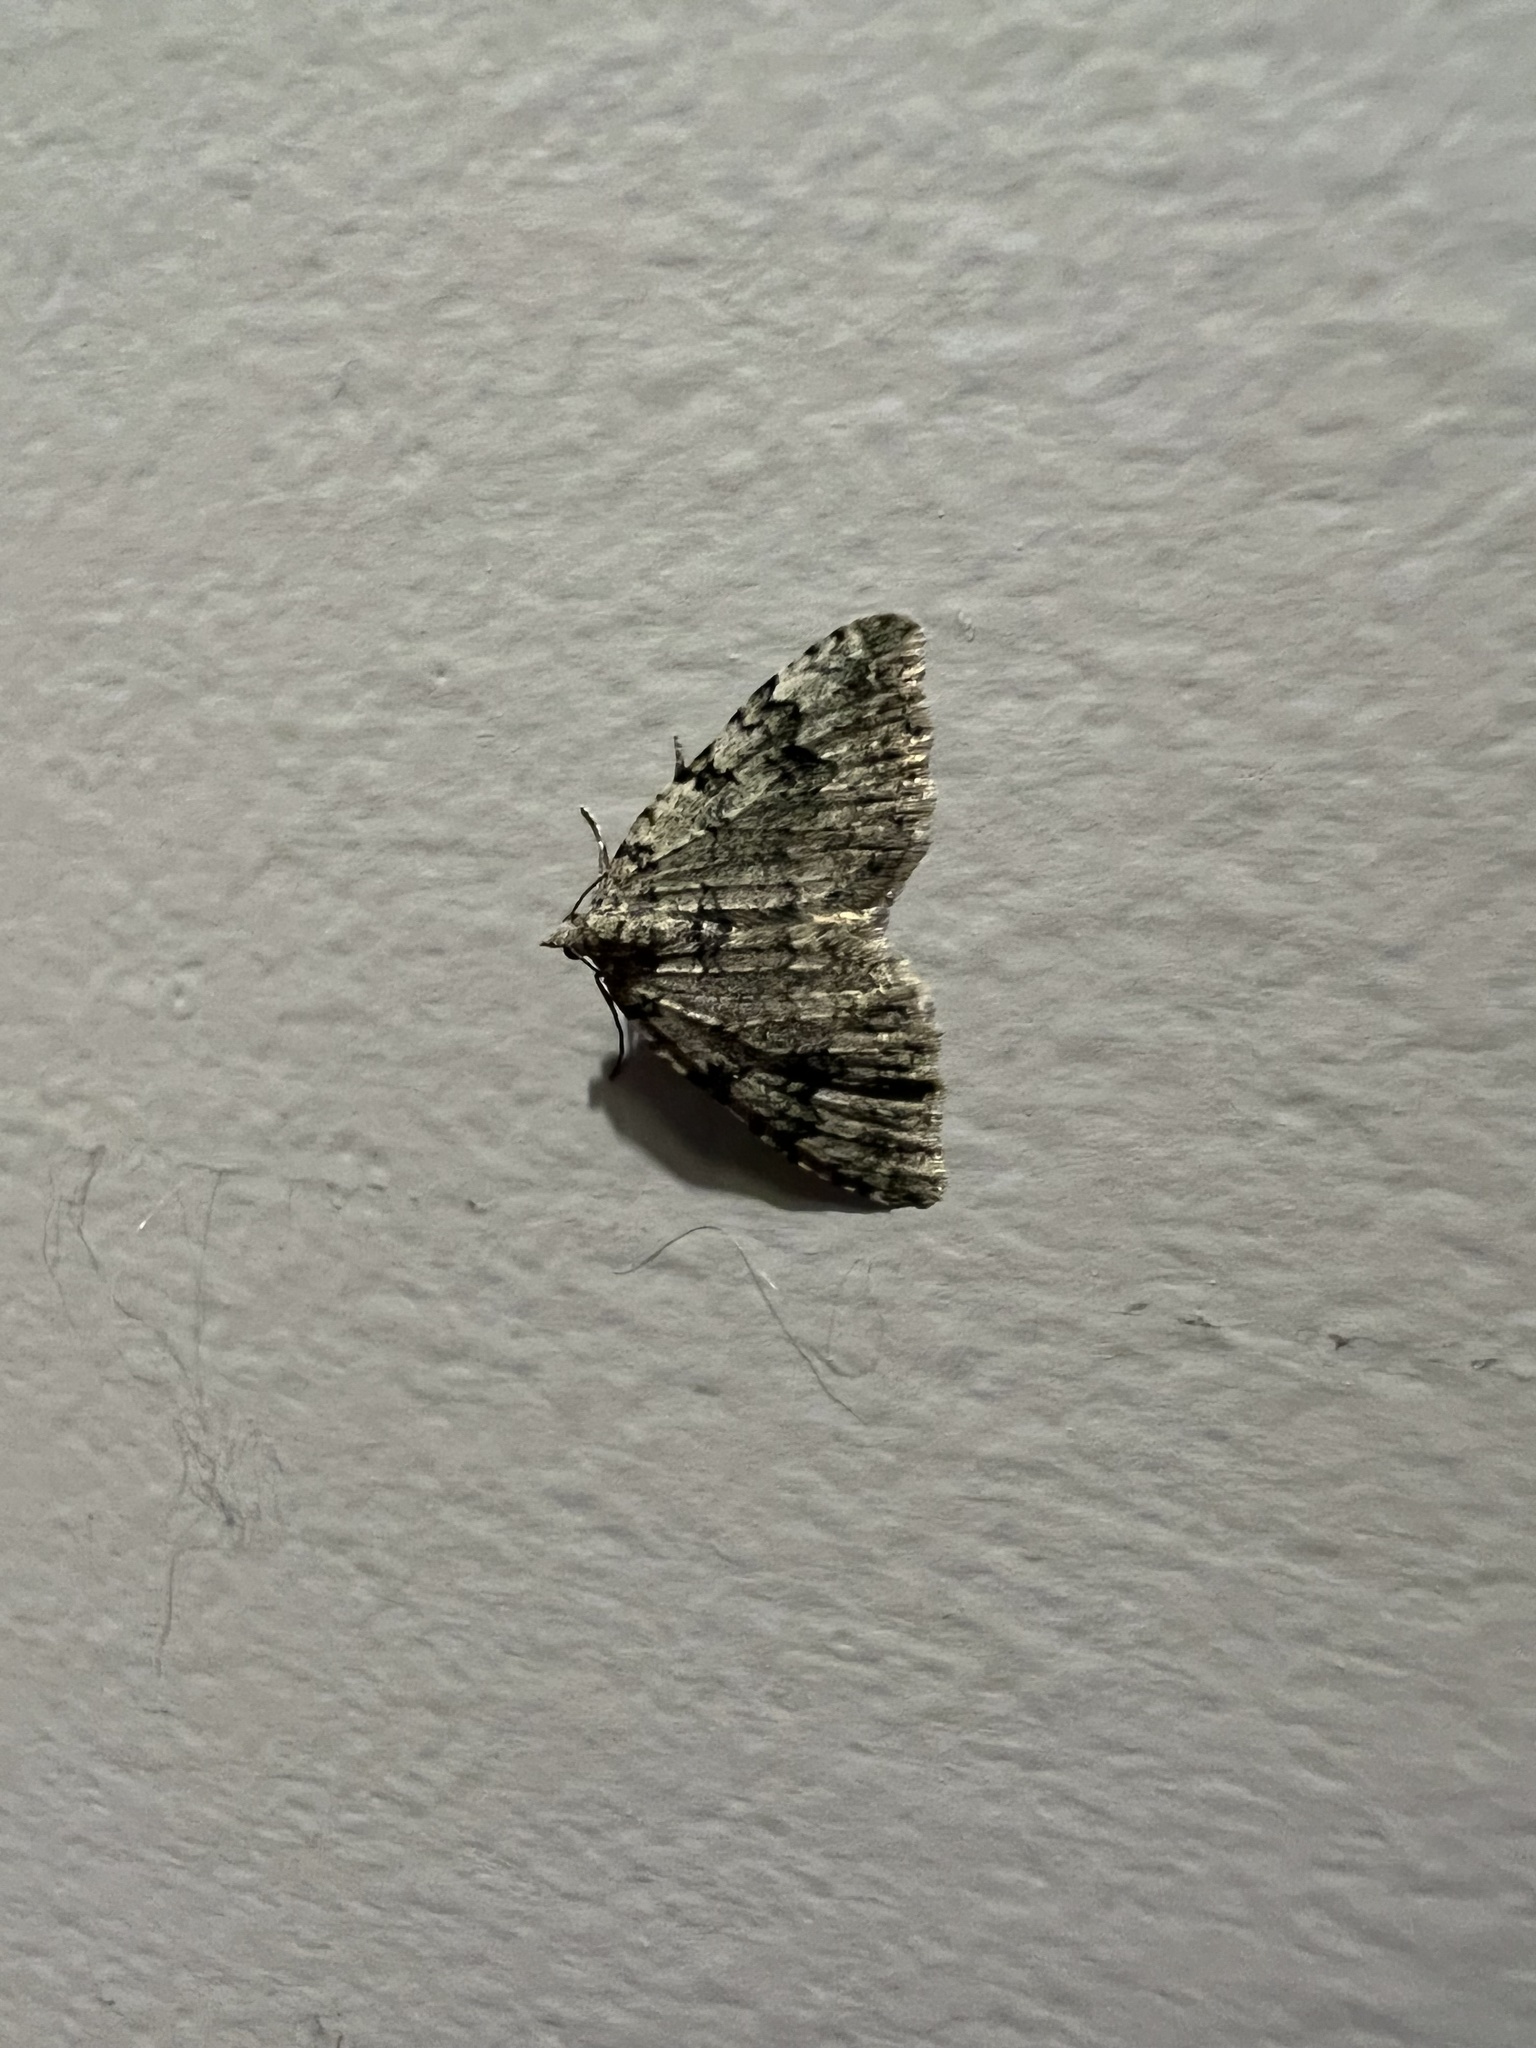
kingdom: Animalia
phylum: Arthropoda
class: Insecta
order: Lepidoptera
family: Geometridae
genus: Helastia
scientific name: Helastia cinerearia
